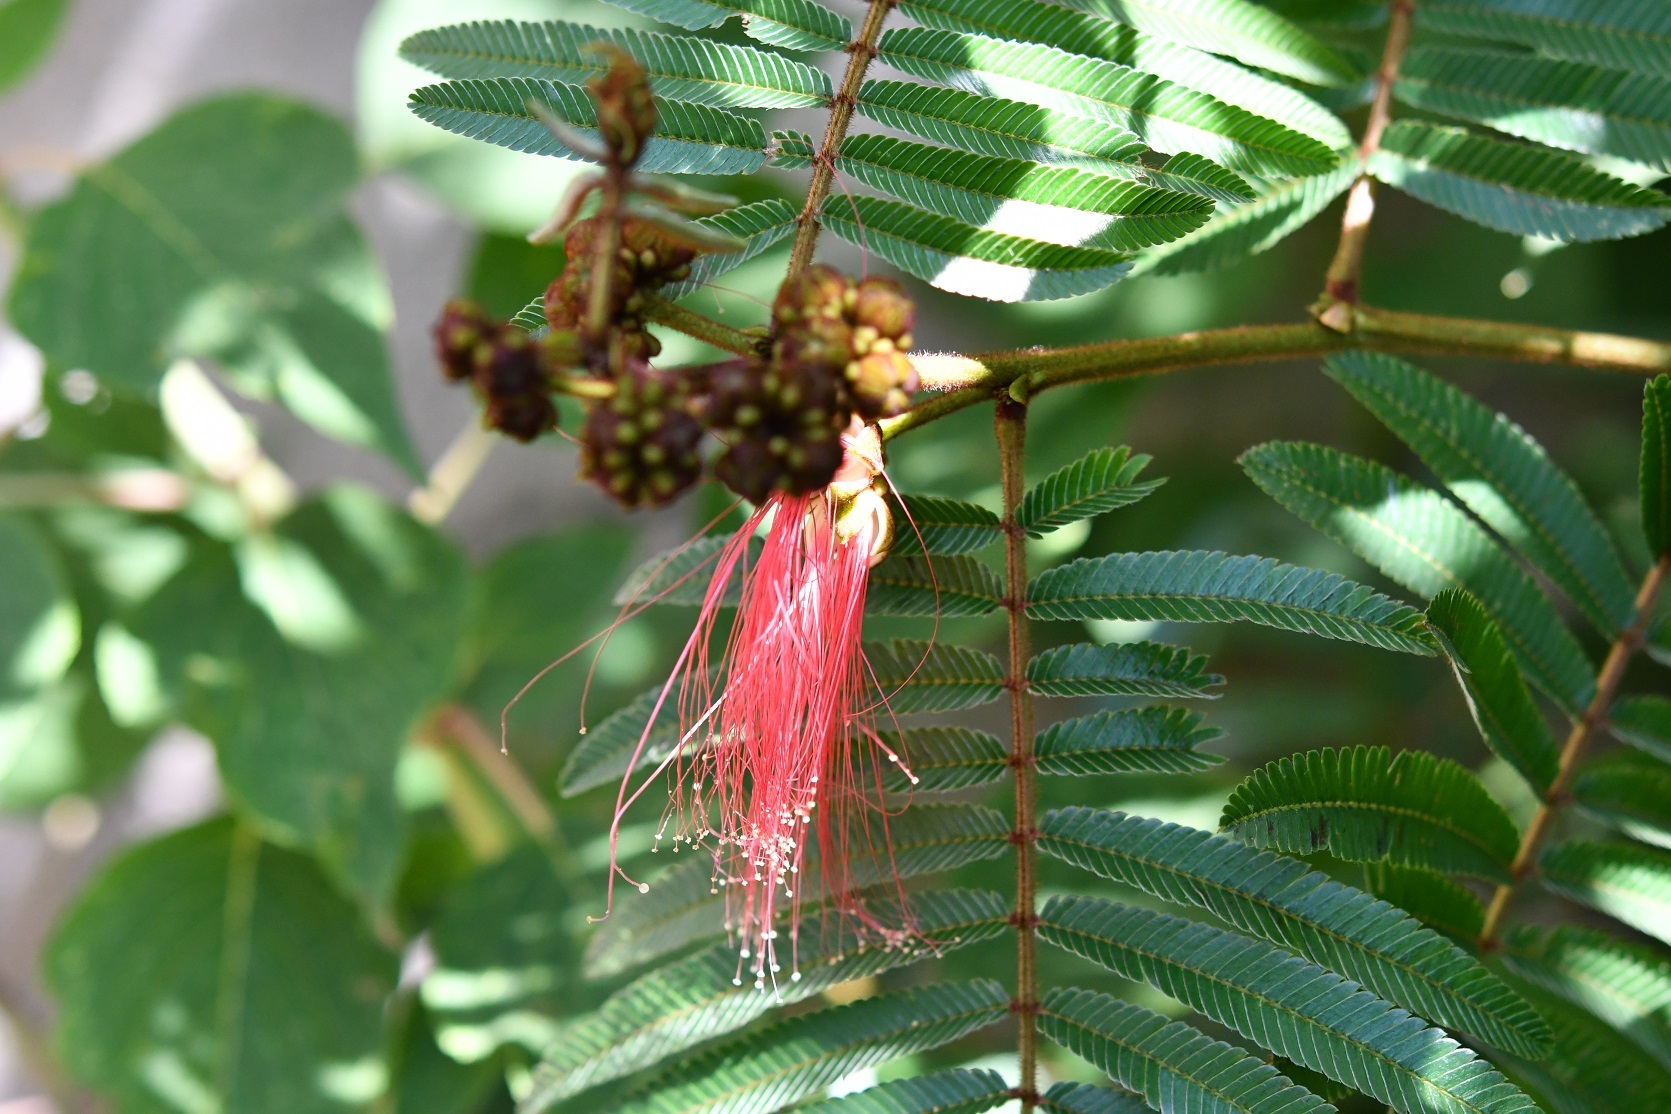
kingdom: Plantae
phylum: Tracheophyta
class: Magnoliopsida
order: Fabales
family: Fabaceae
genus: Calliandra
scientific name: Calliandra houstoniana
